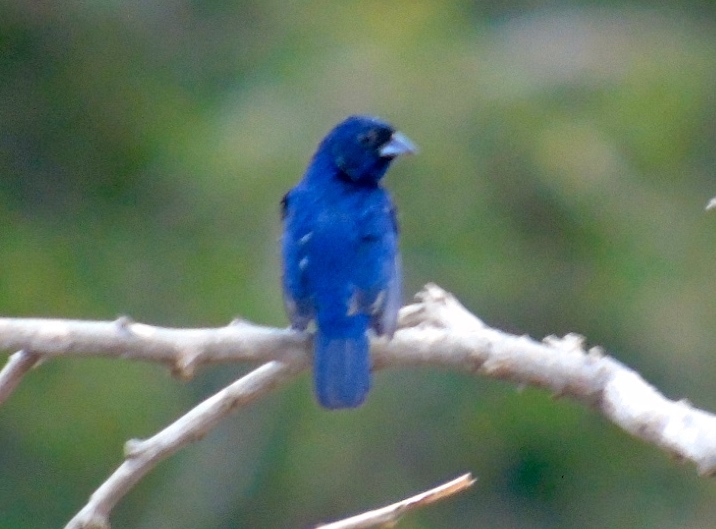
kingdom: Animalia
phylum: Chordata
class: Aves
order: Passeriformes
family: Thraupidae
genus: Volatinia
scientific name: Volatinia jacarina
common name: Blue-black grassquit
